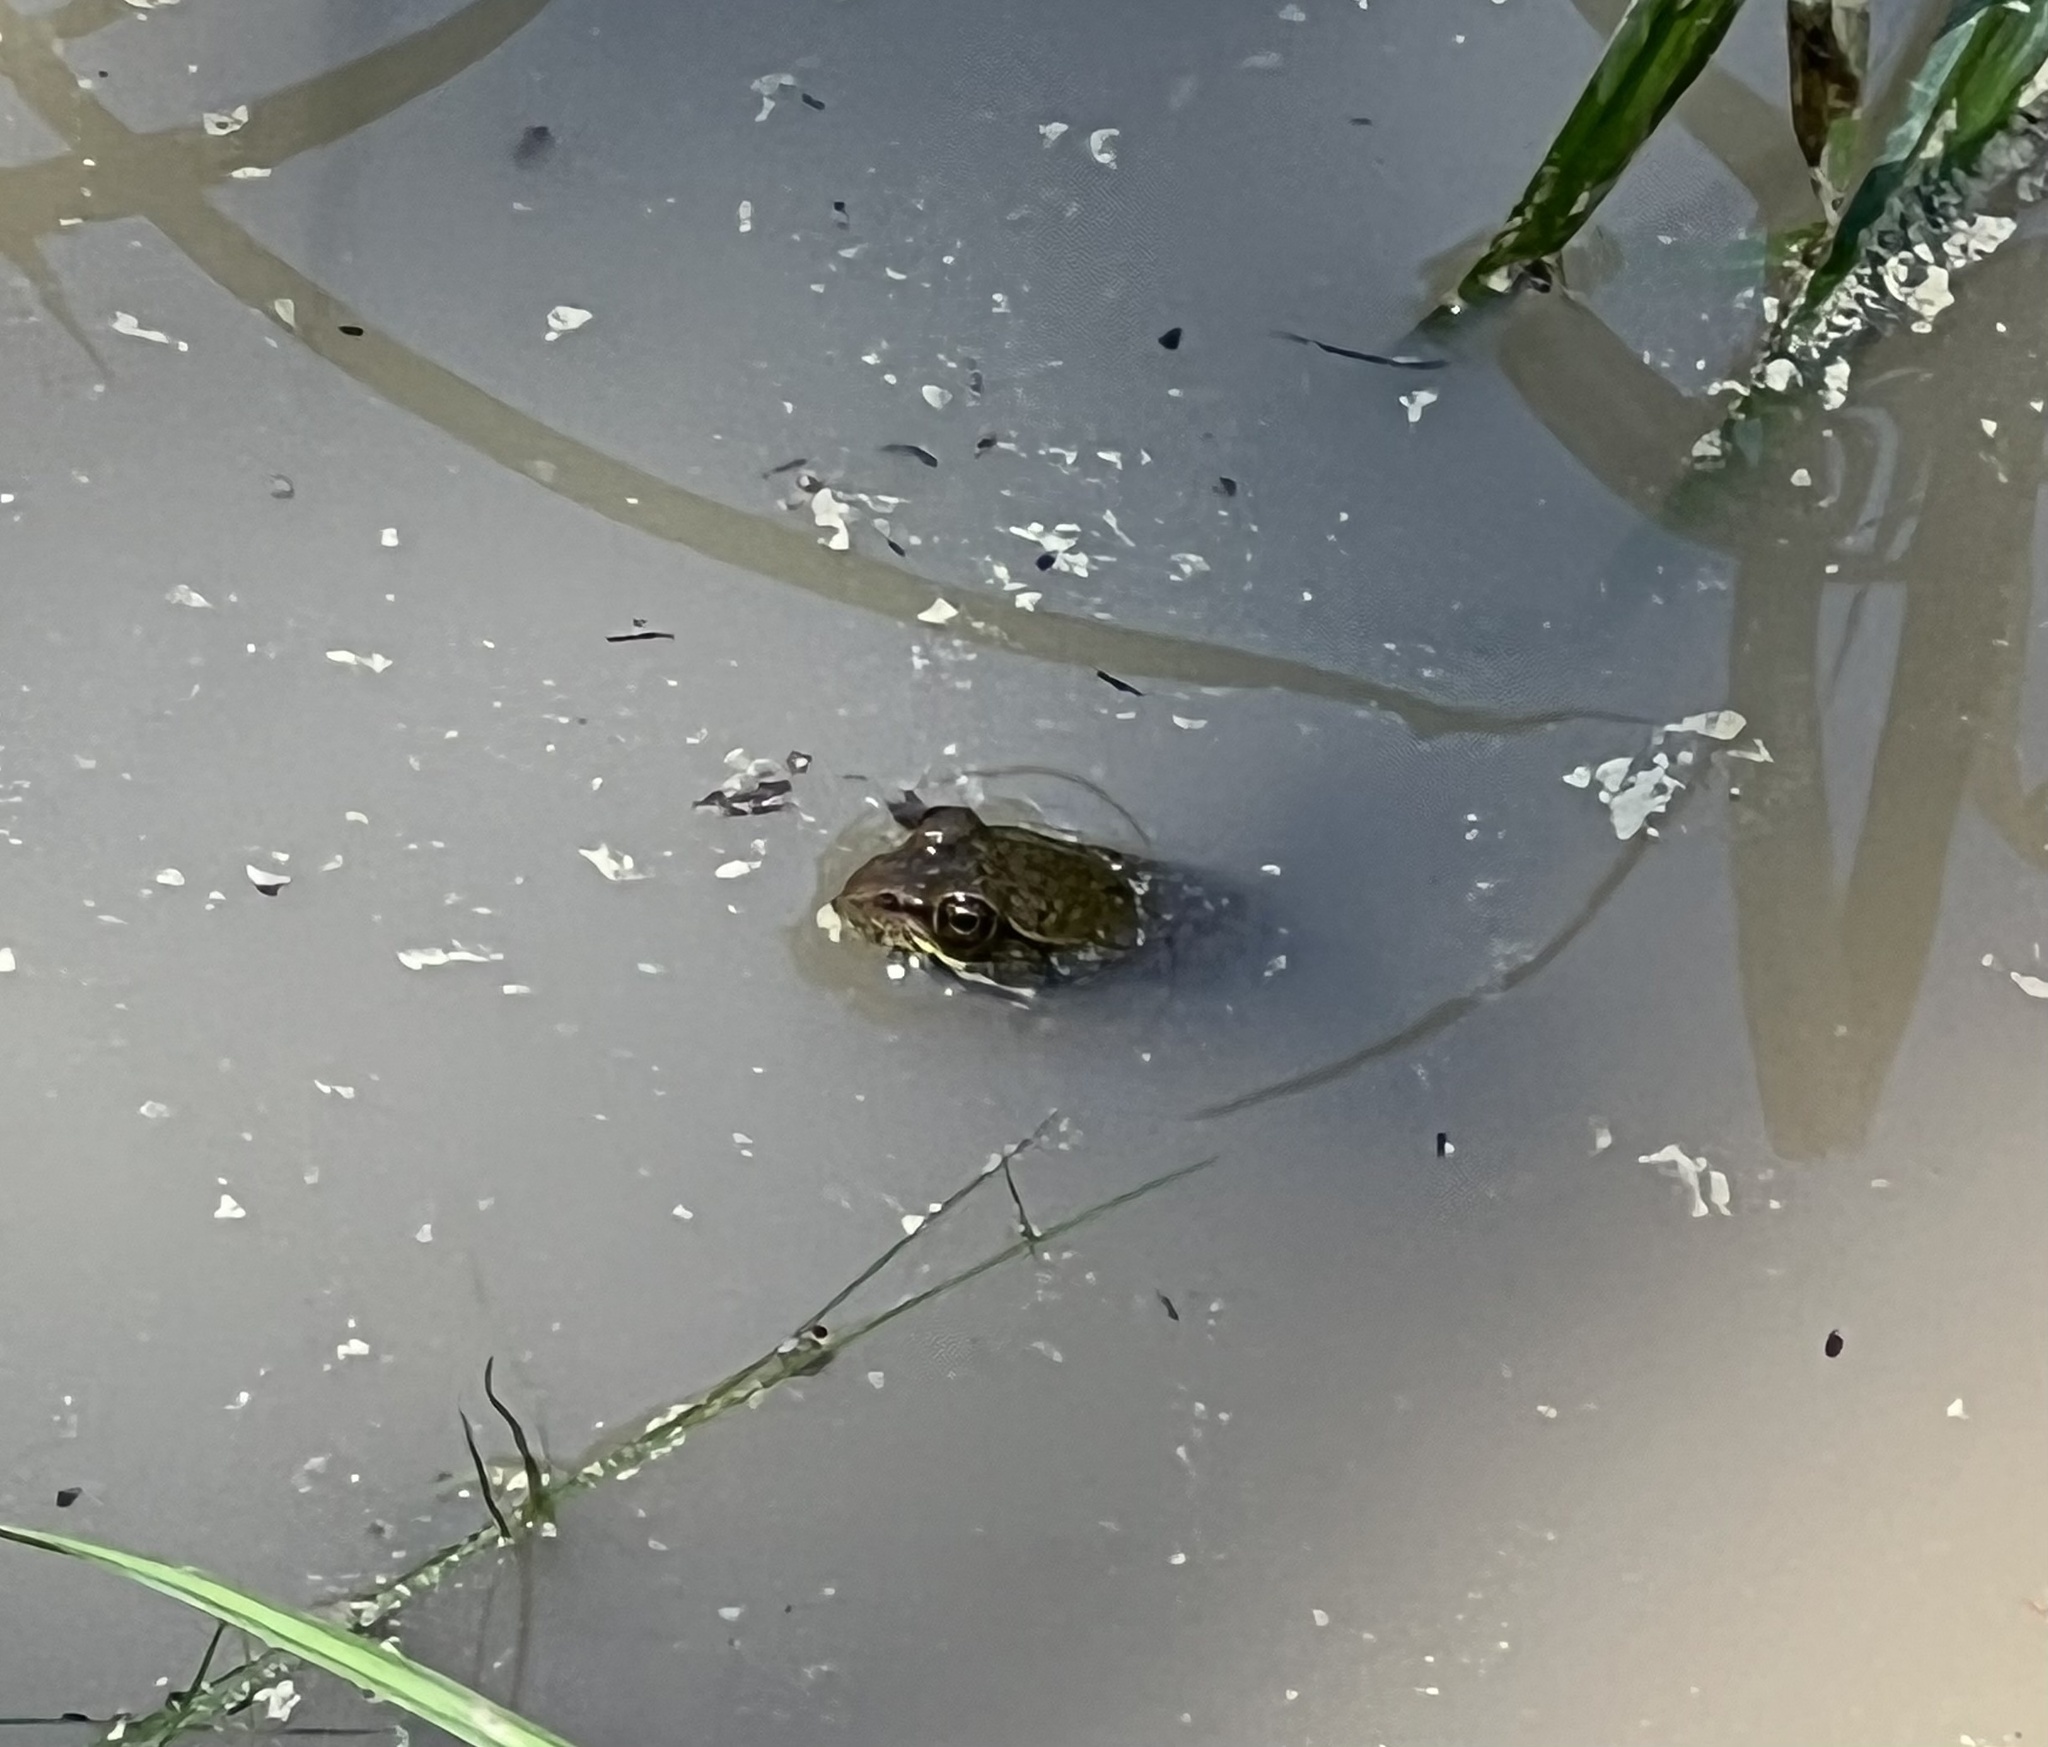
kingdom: Animalia
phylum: Chordata
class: Amphibia
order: Anura
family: Ranidae
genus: Lithobates
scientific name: Lithobates clamitans
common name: Green frog
